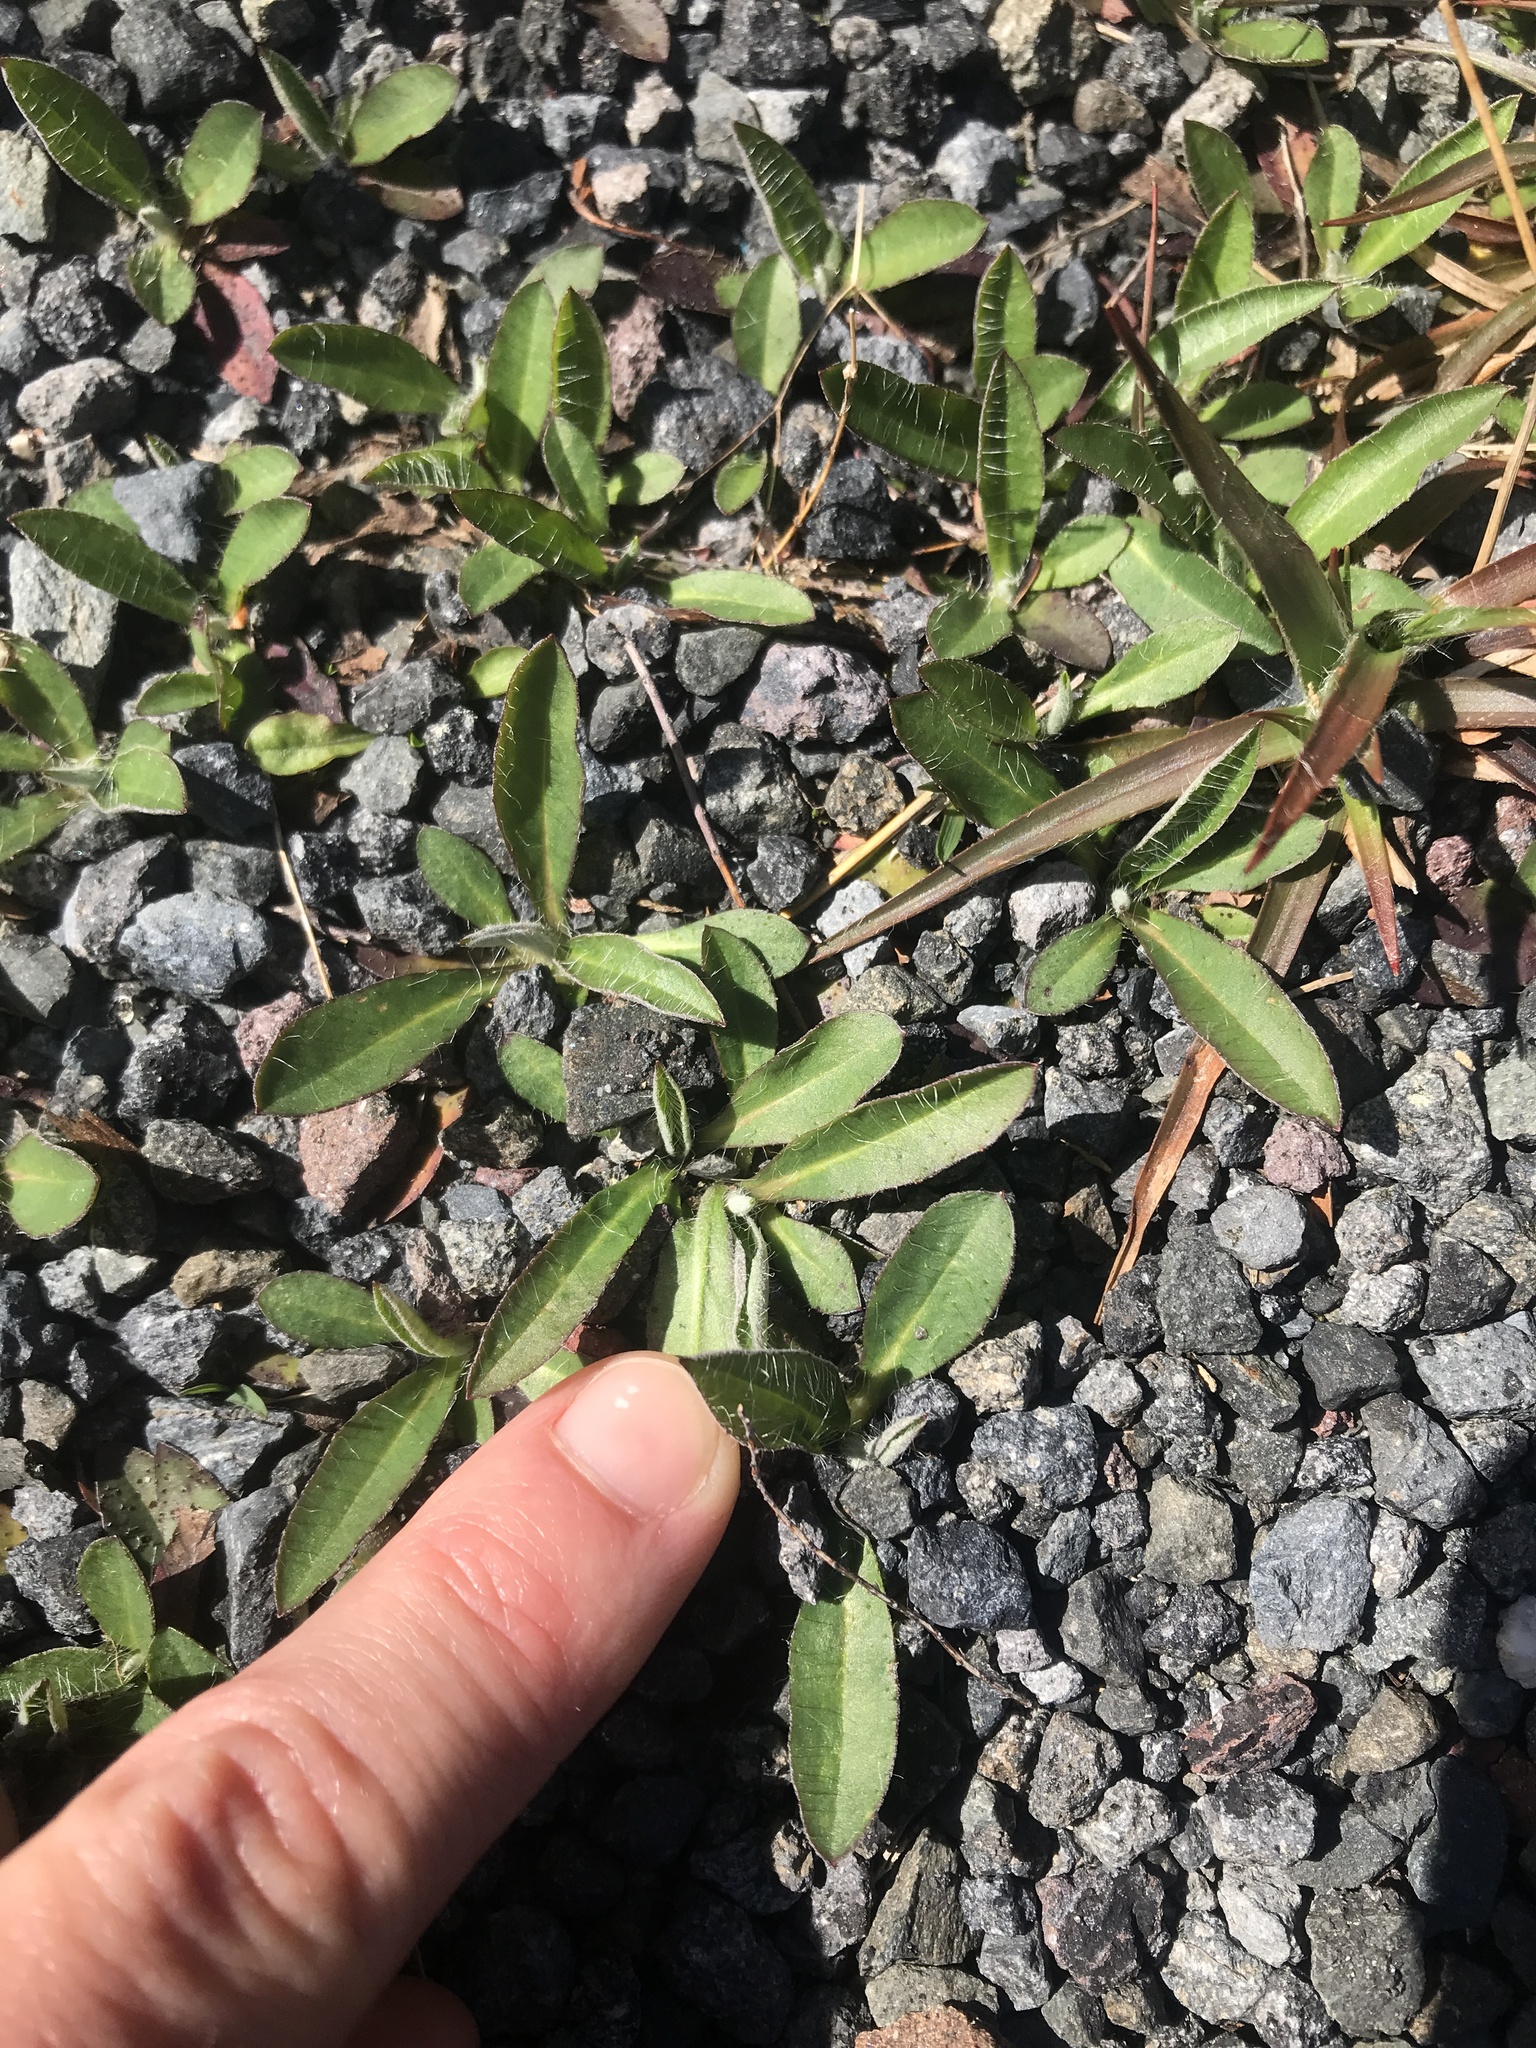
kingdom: Plantae
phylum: Tracheophyta
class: Magnoliopsida
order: Asterales
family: Asteraceae
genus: Pilosella
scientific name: Pilosella officinarum
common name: Mouse-ear hawkweed
